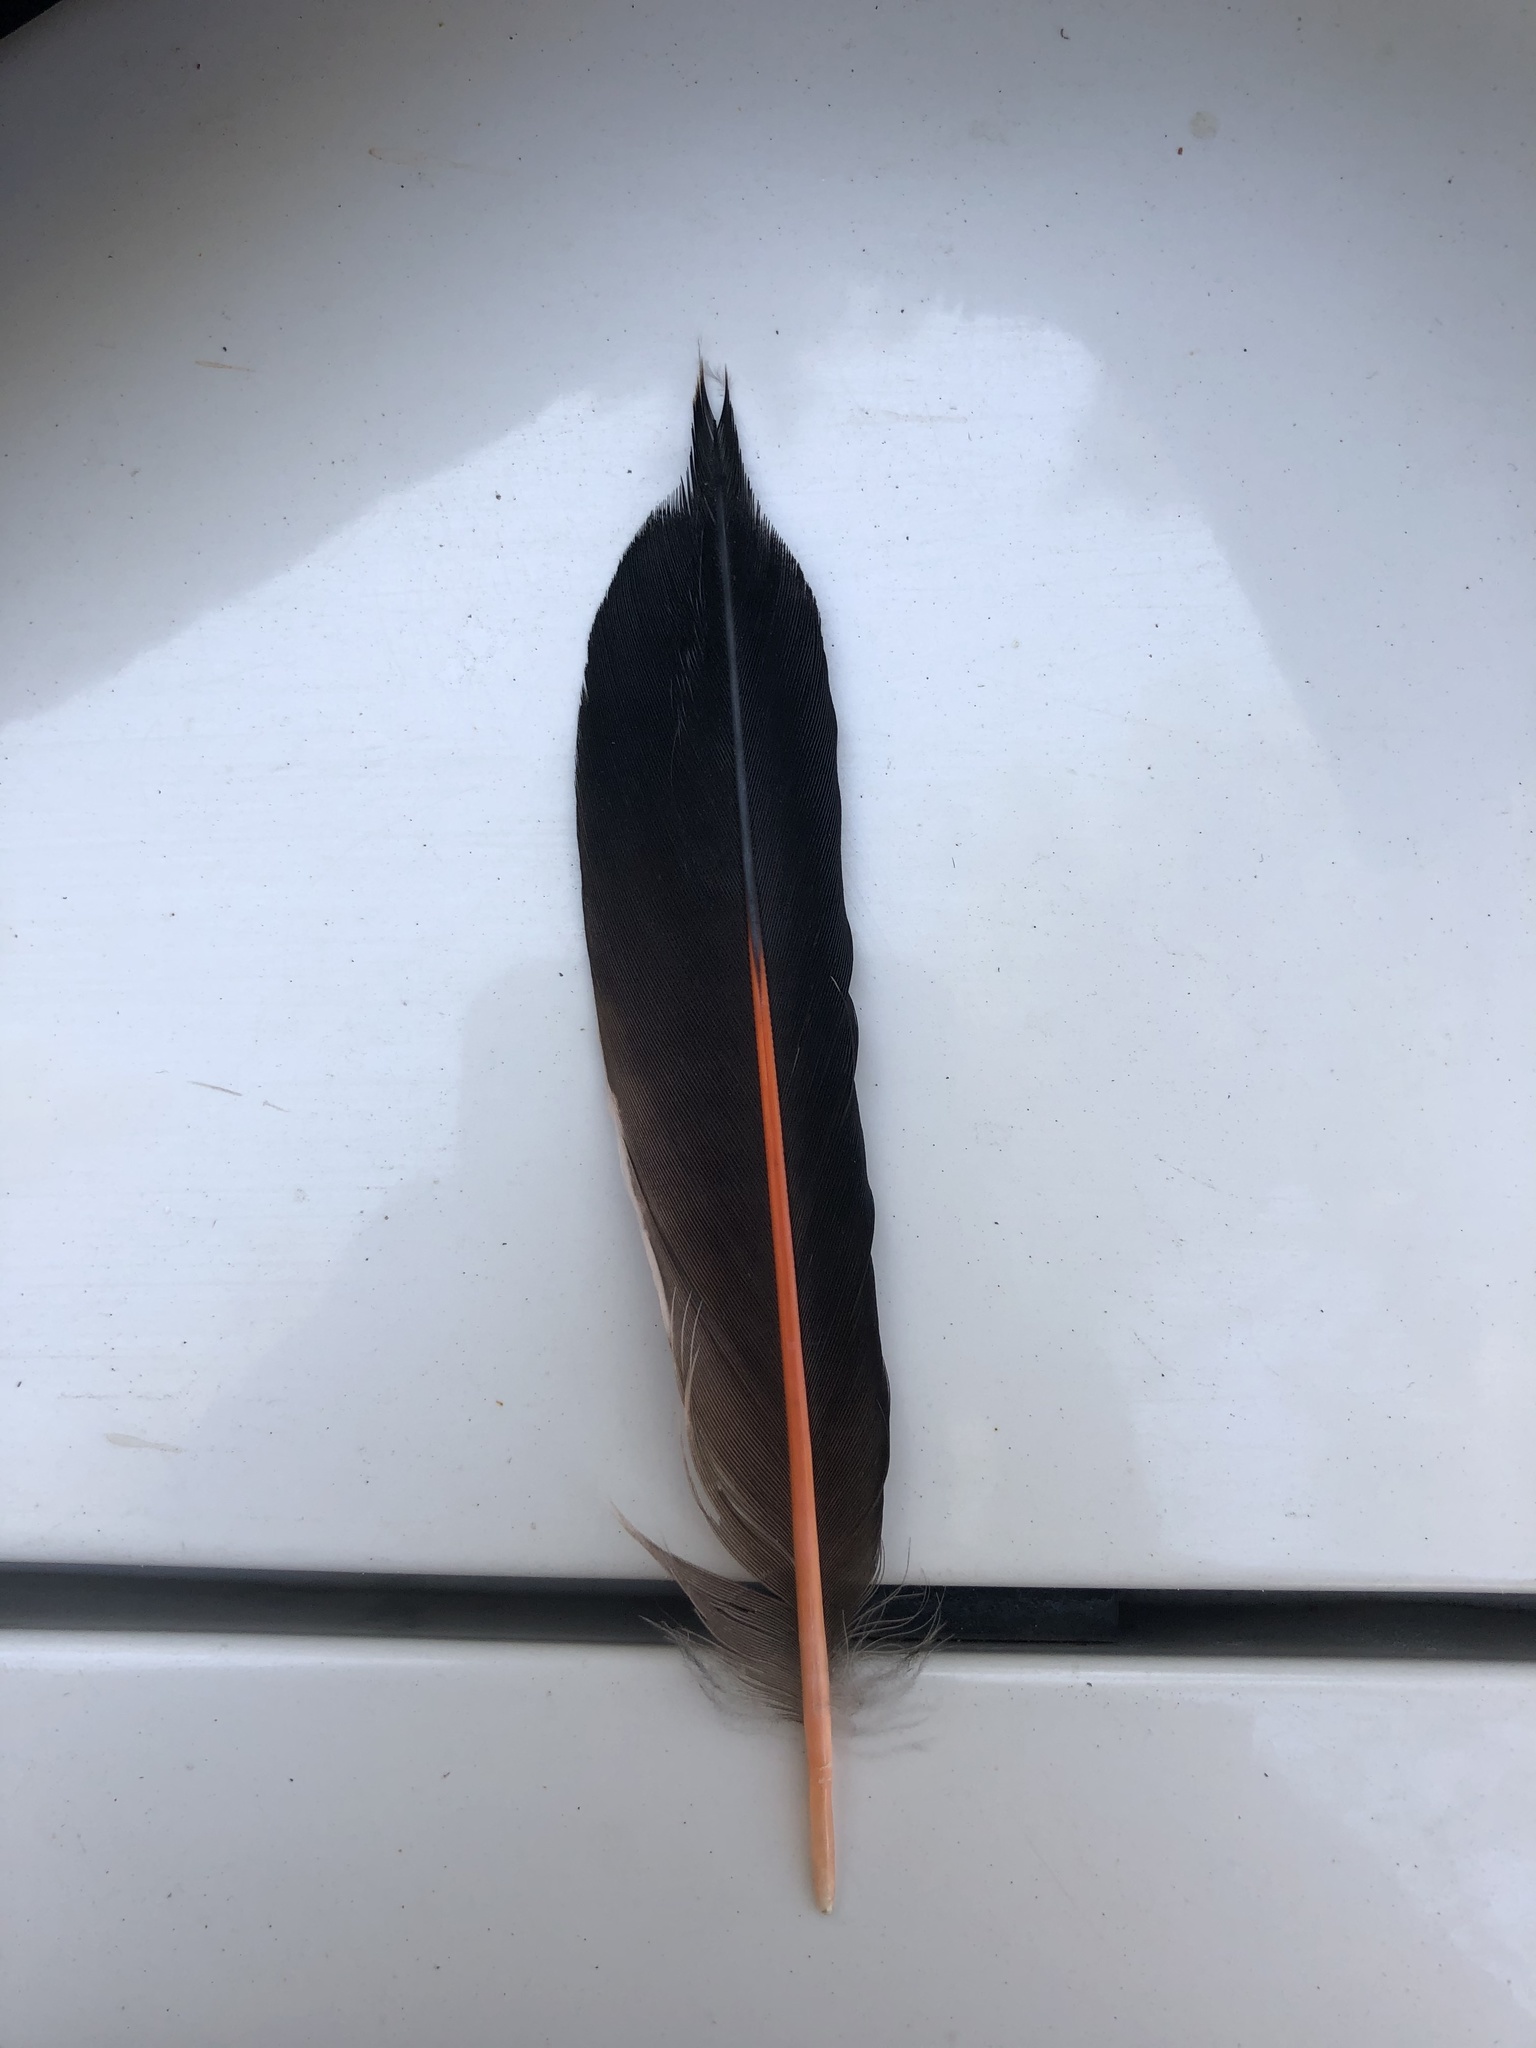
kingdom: Animalia
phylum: Chordata
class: Aves
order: Piciformes
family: Picidae
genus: Colaptes
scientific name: Colaptes auratus
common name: Northern flicker
